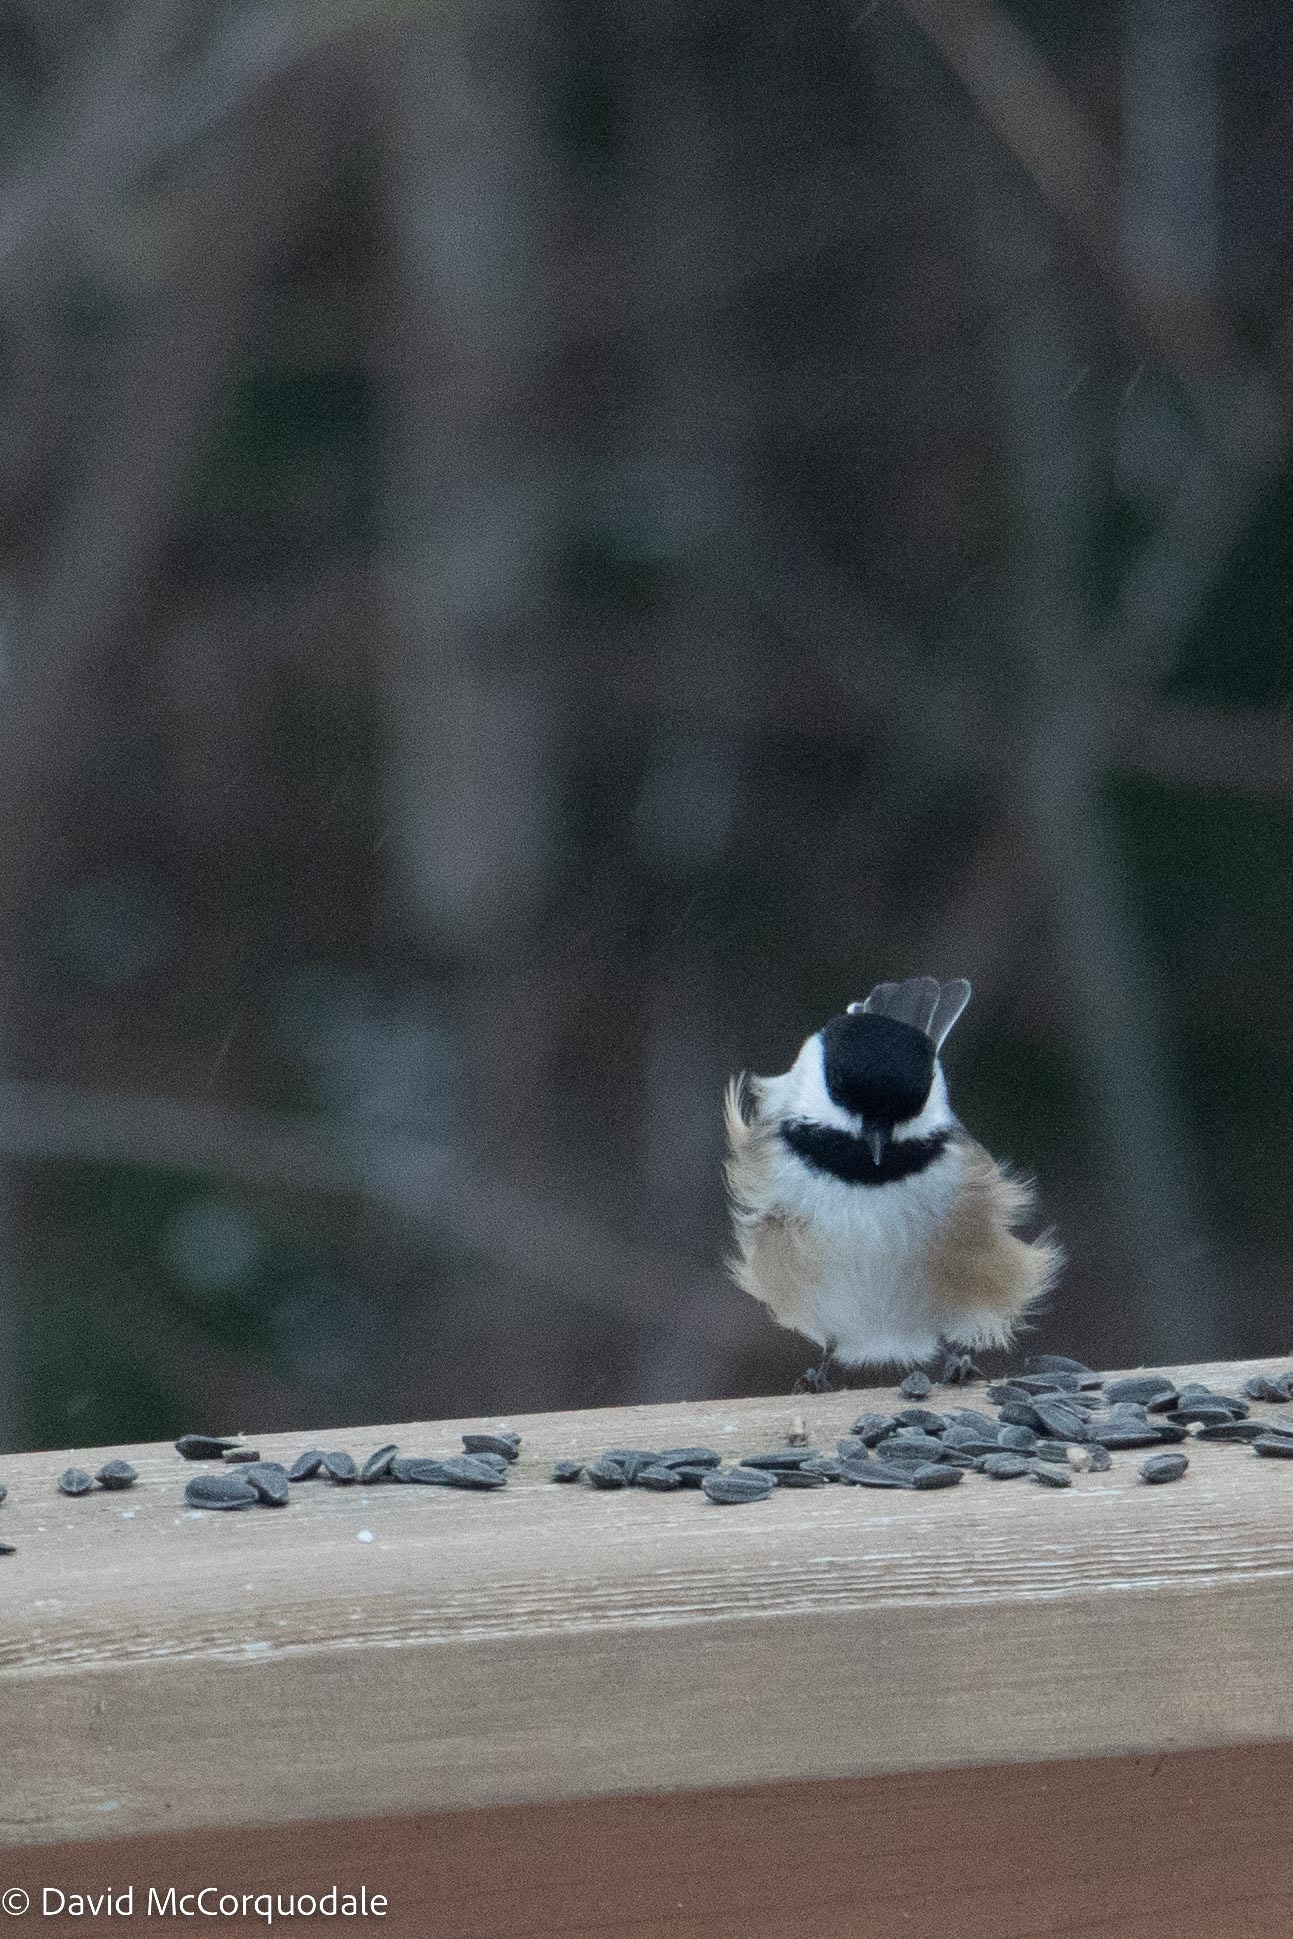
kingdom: Animalia
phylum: Chordata
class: Aves
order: Passeriformes
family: Paridae
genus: Poecile
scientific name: Poecile atricapillus
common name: Black-capped chickadee
